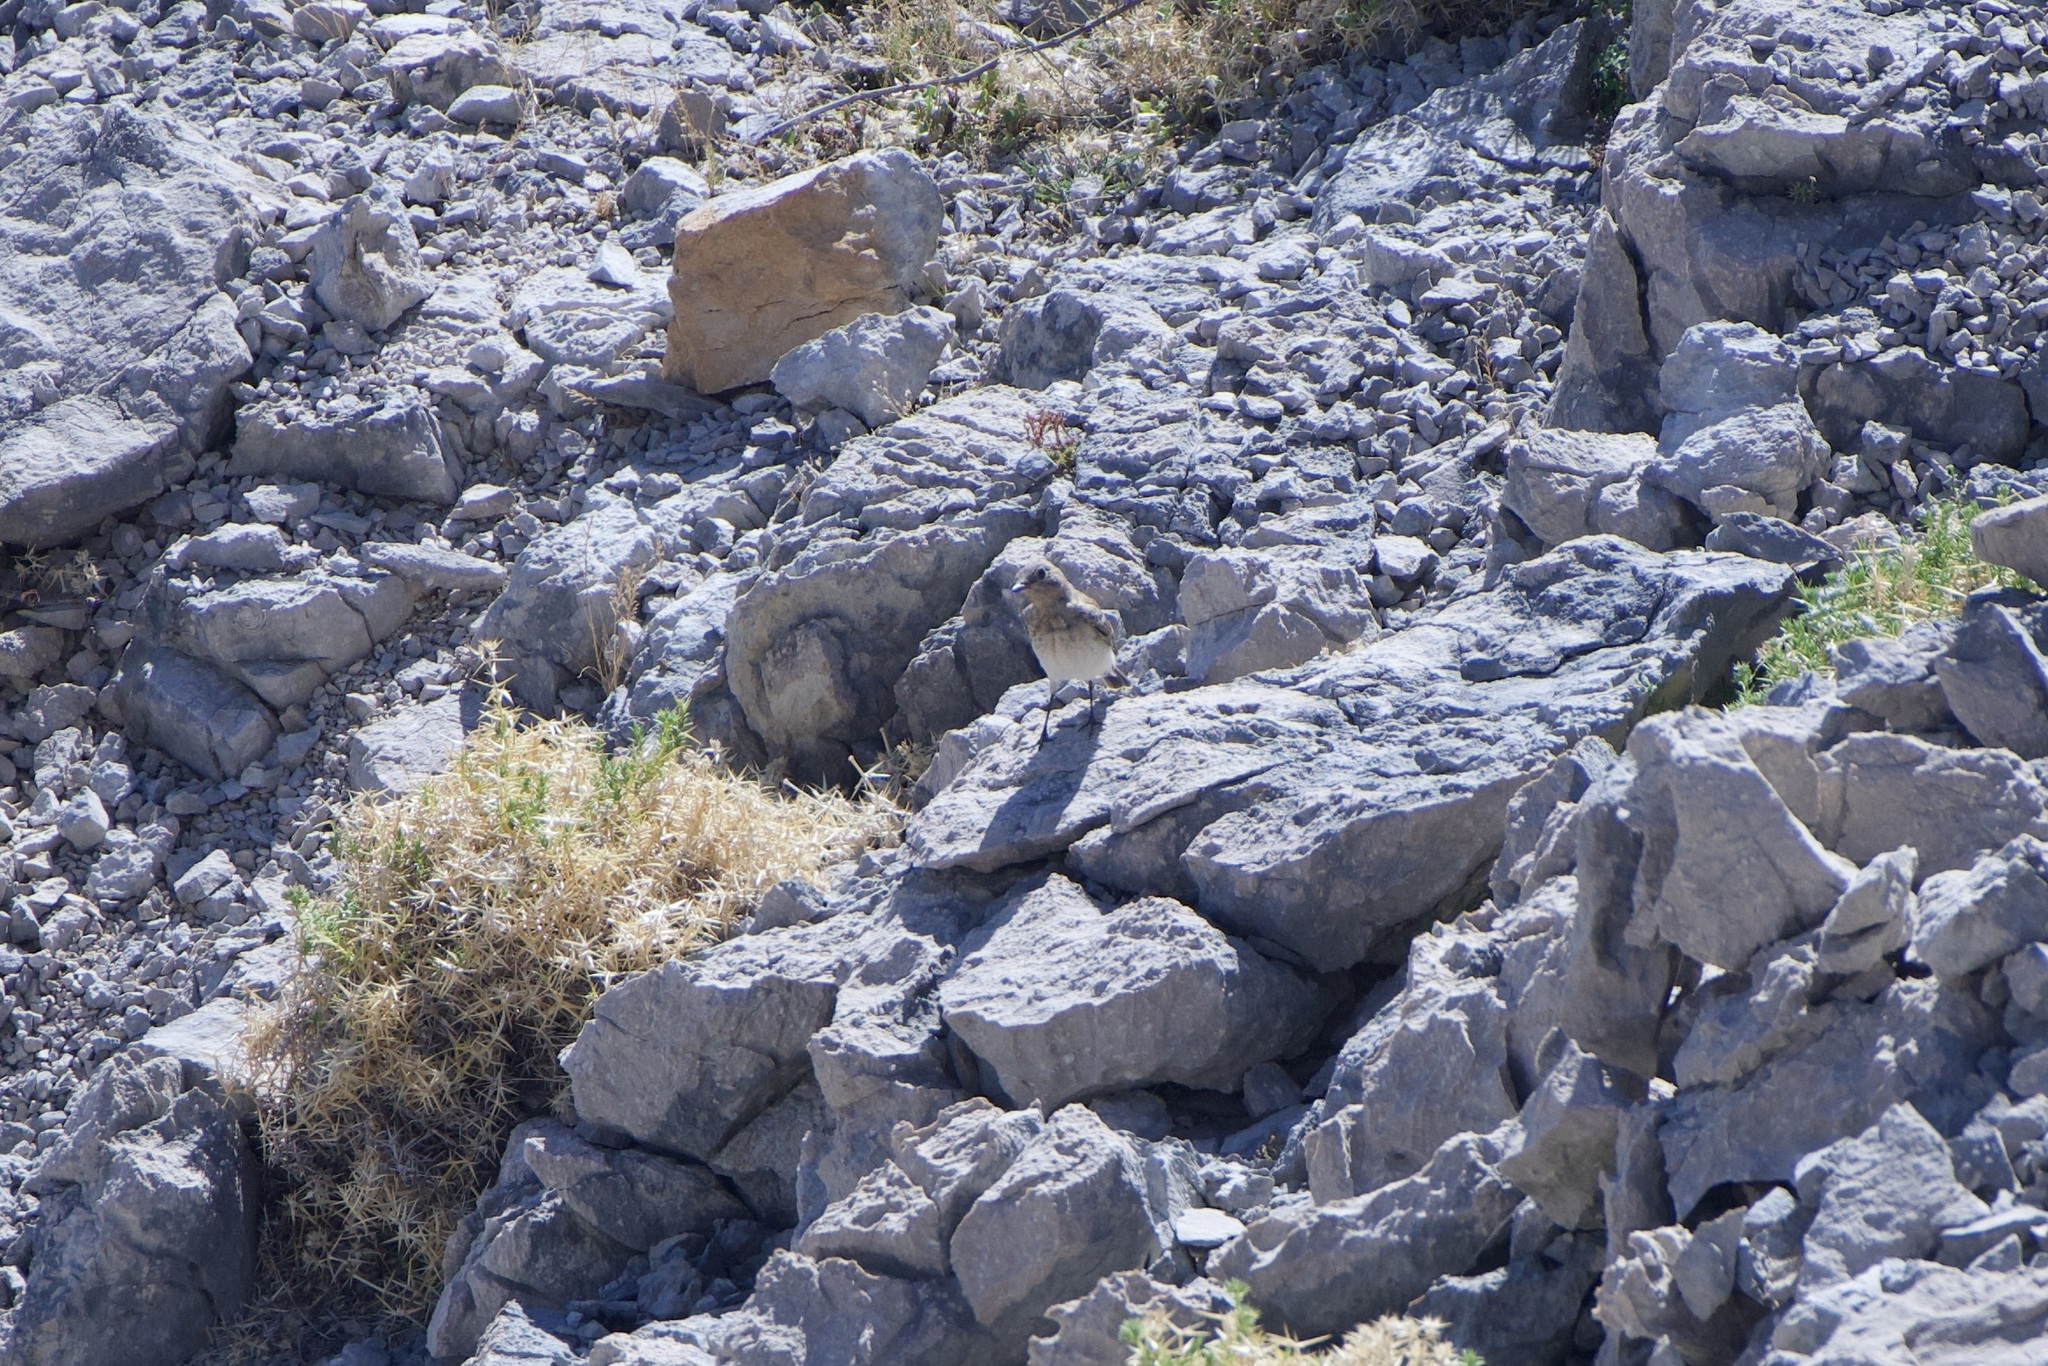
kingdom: Animalia
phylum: Chordata
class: Aves
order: Passeriformes
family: Muscicapidae
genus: Oenanthe
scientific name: Oenanthe hispanica
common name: Black-eared wheatear
